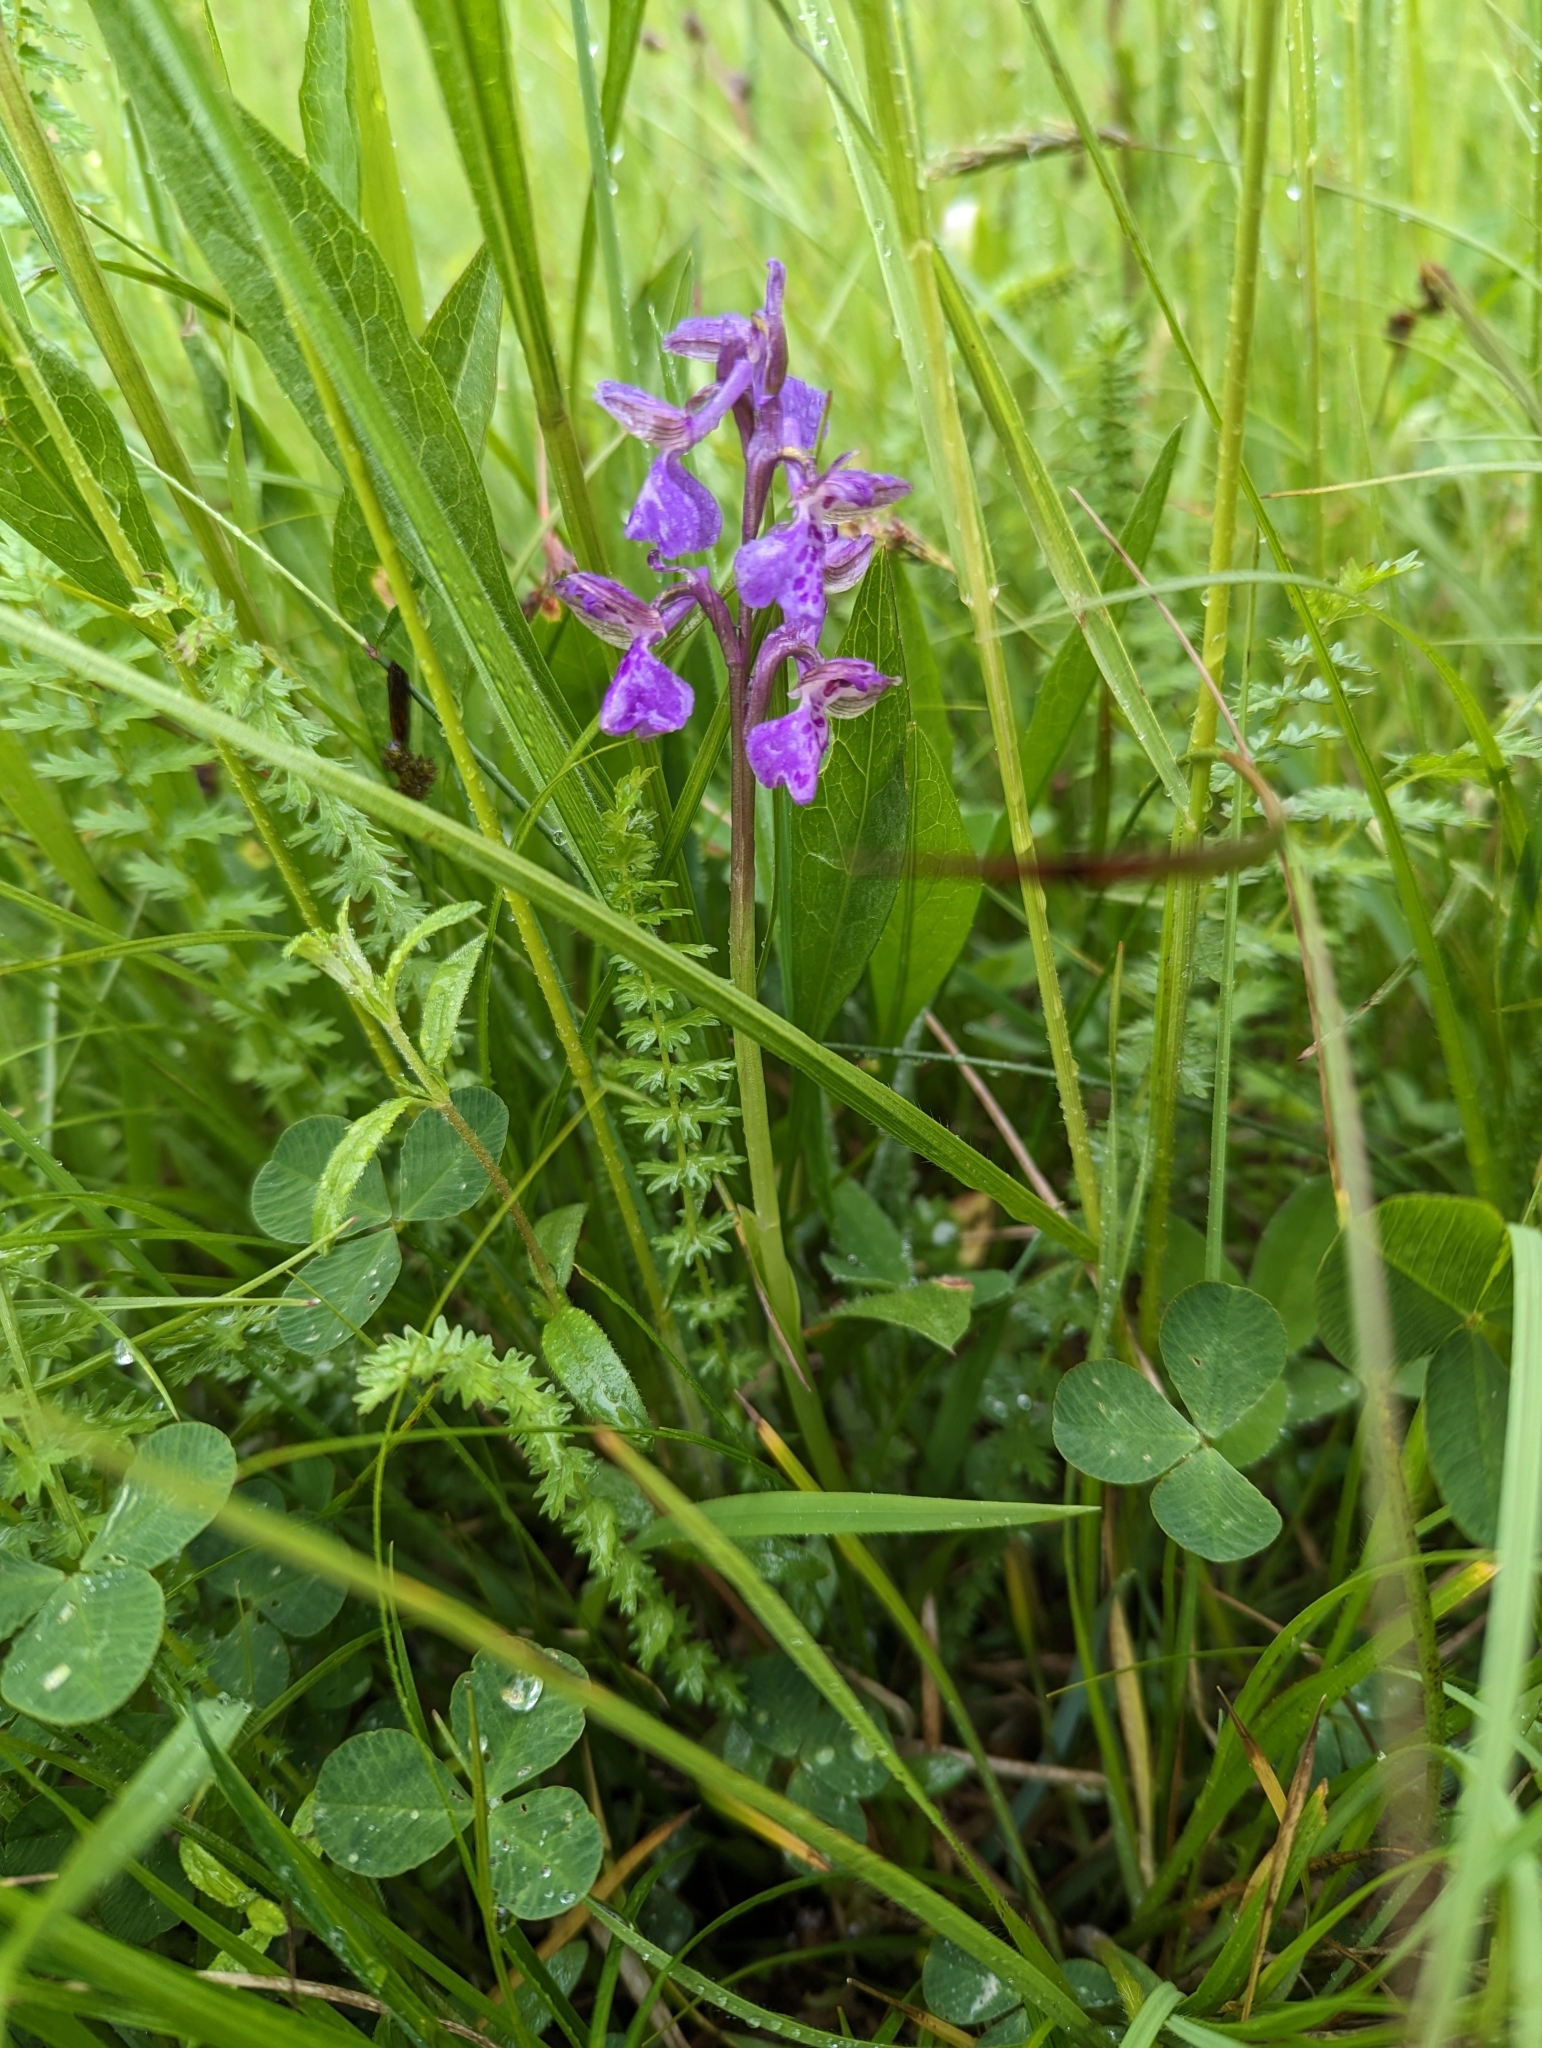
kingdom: Plantae
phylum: Tracheophyta
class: Liliopsida
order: Asparagales
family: Orchidaceae
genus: Anacamptis
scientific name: Anacamptis morio
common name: Green-winged orchid
